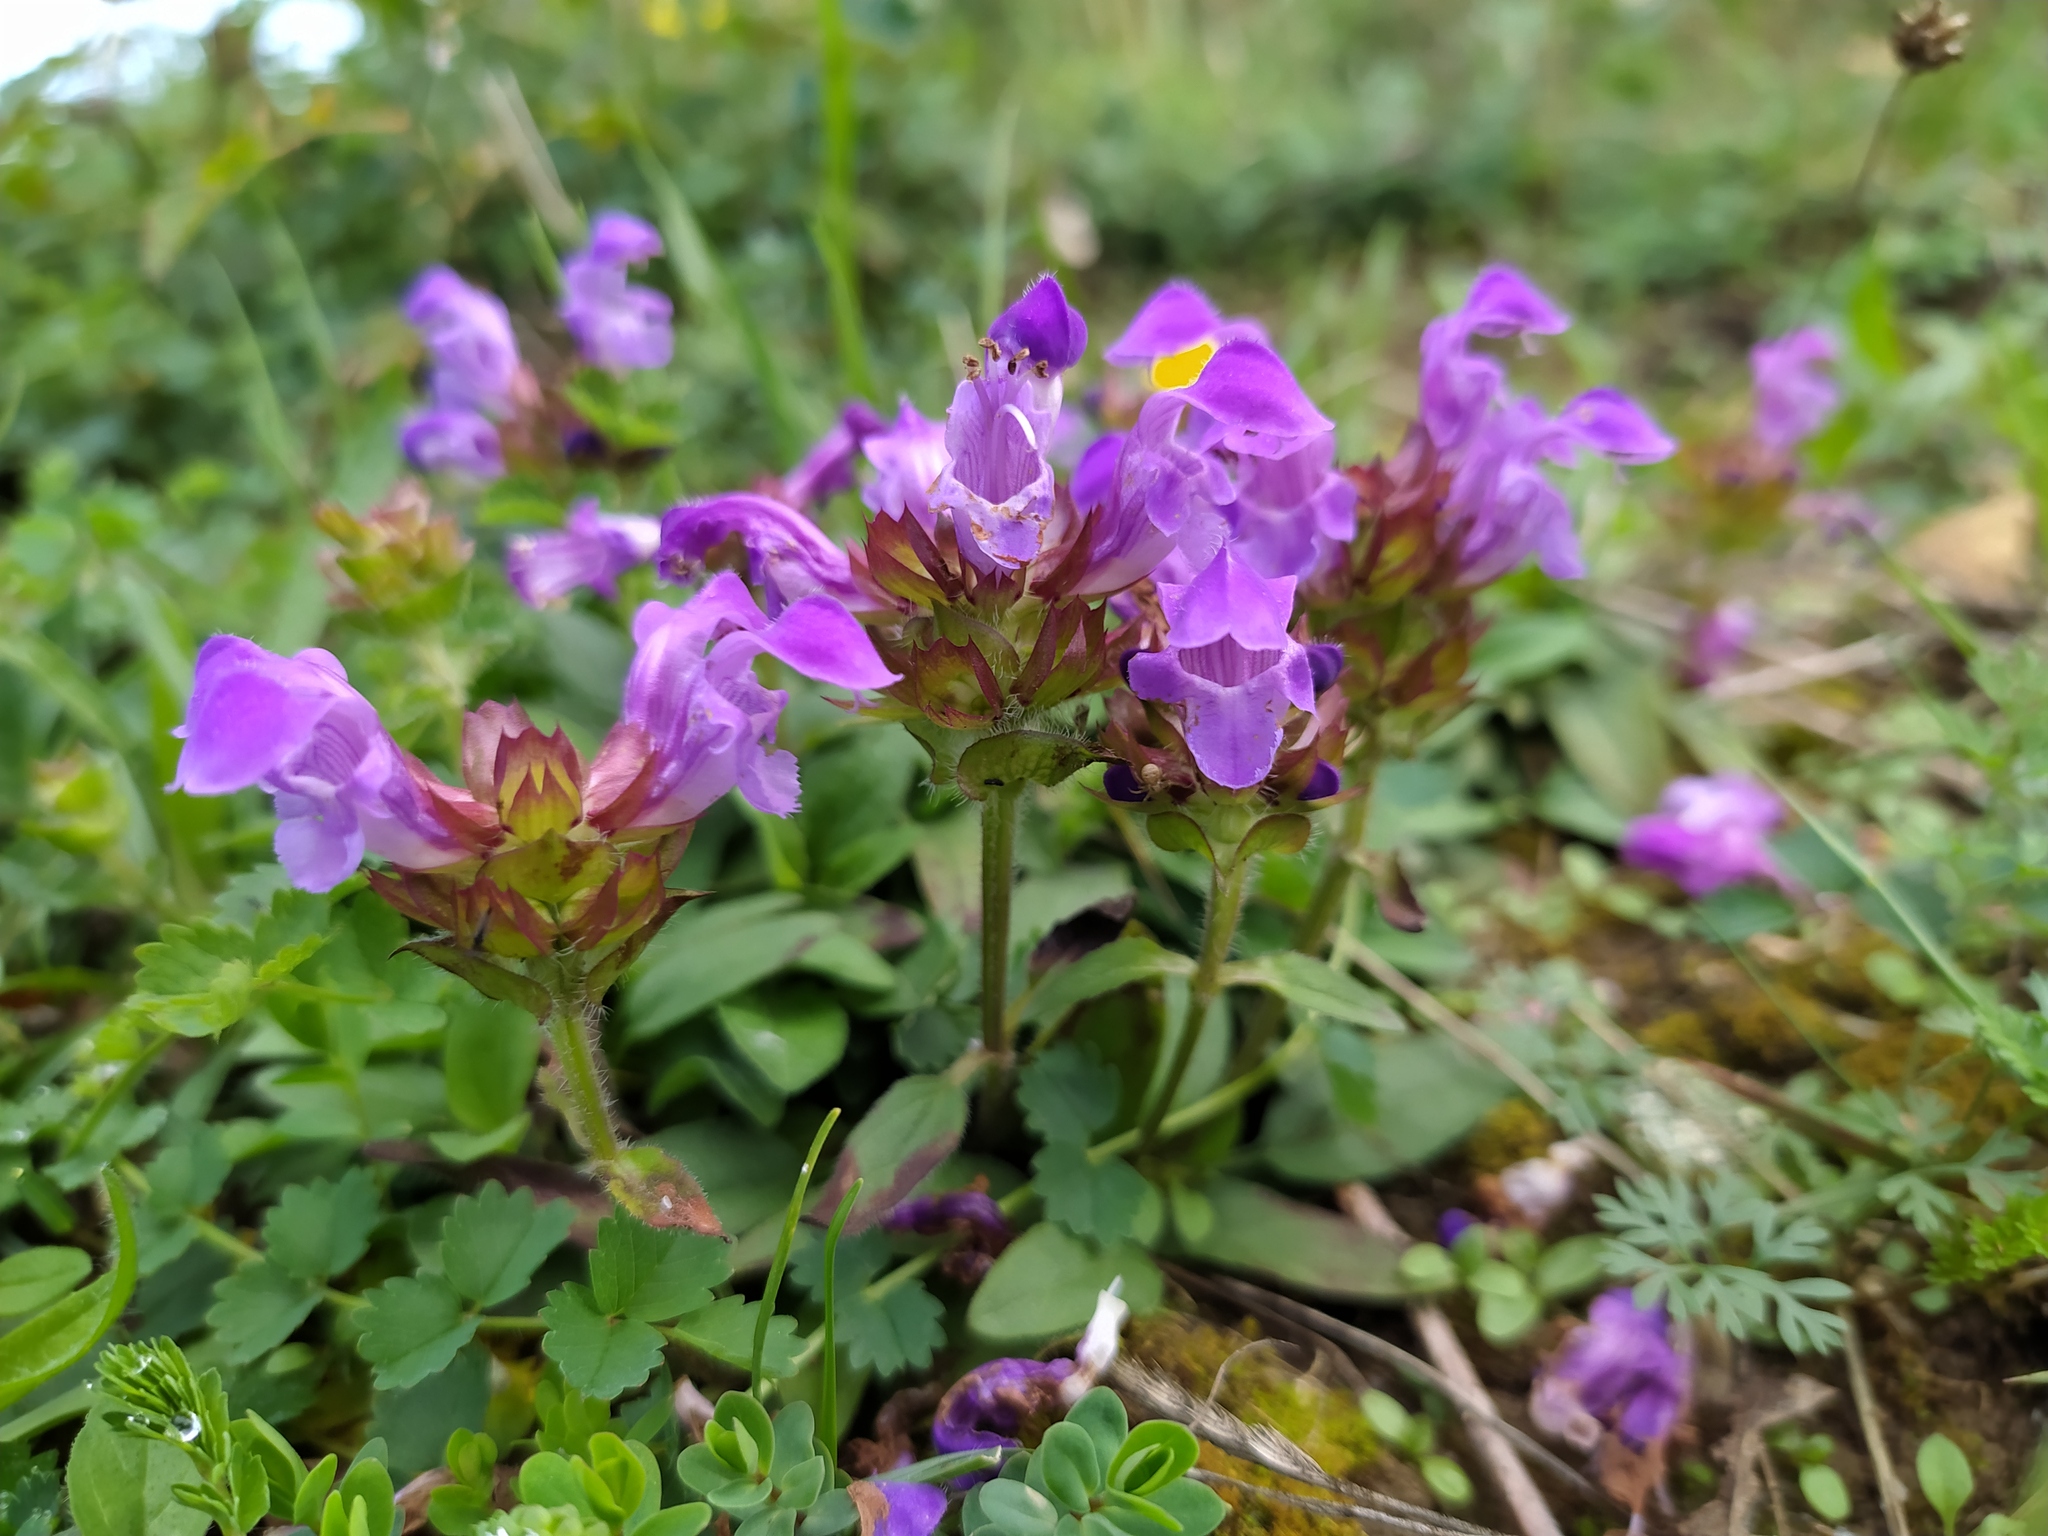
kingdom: Plantae
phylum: Tracheophyta
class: Magnoliopsida
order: Lamiales
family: Lamiaceae
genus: Prunella
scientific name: Prunella grandiflora
